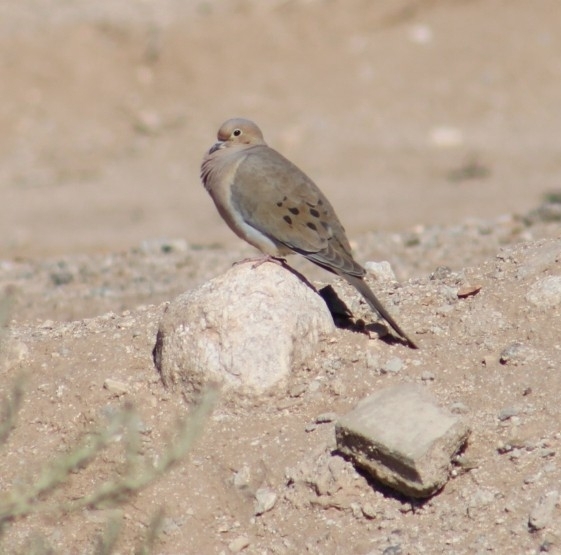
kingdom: Animalia
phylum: Chordata
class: Aves
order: Columbiformes
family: Columbidae
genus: Zenaida
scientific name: Zenaida macroura
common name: Mourning dove
